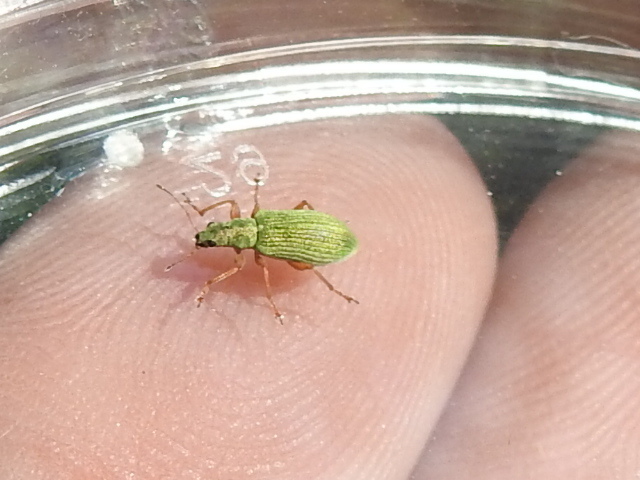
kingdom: Animalia
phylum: Arthropoda
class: Insecta
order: Coleoptera
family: Curculionidae
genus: Polydrusus
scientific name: Polydrusus impressifrons
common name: Weevil
